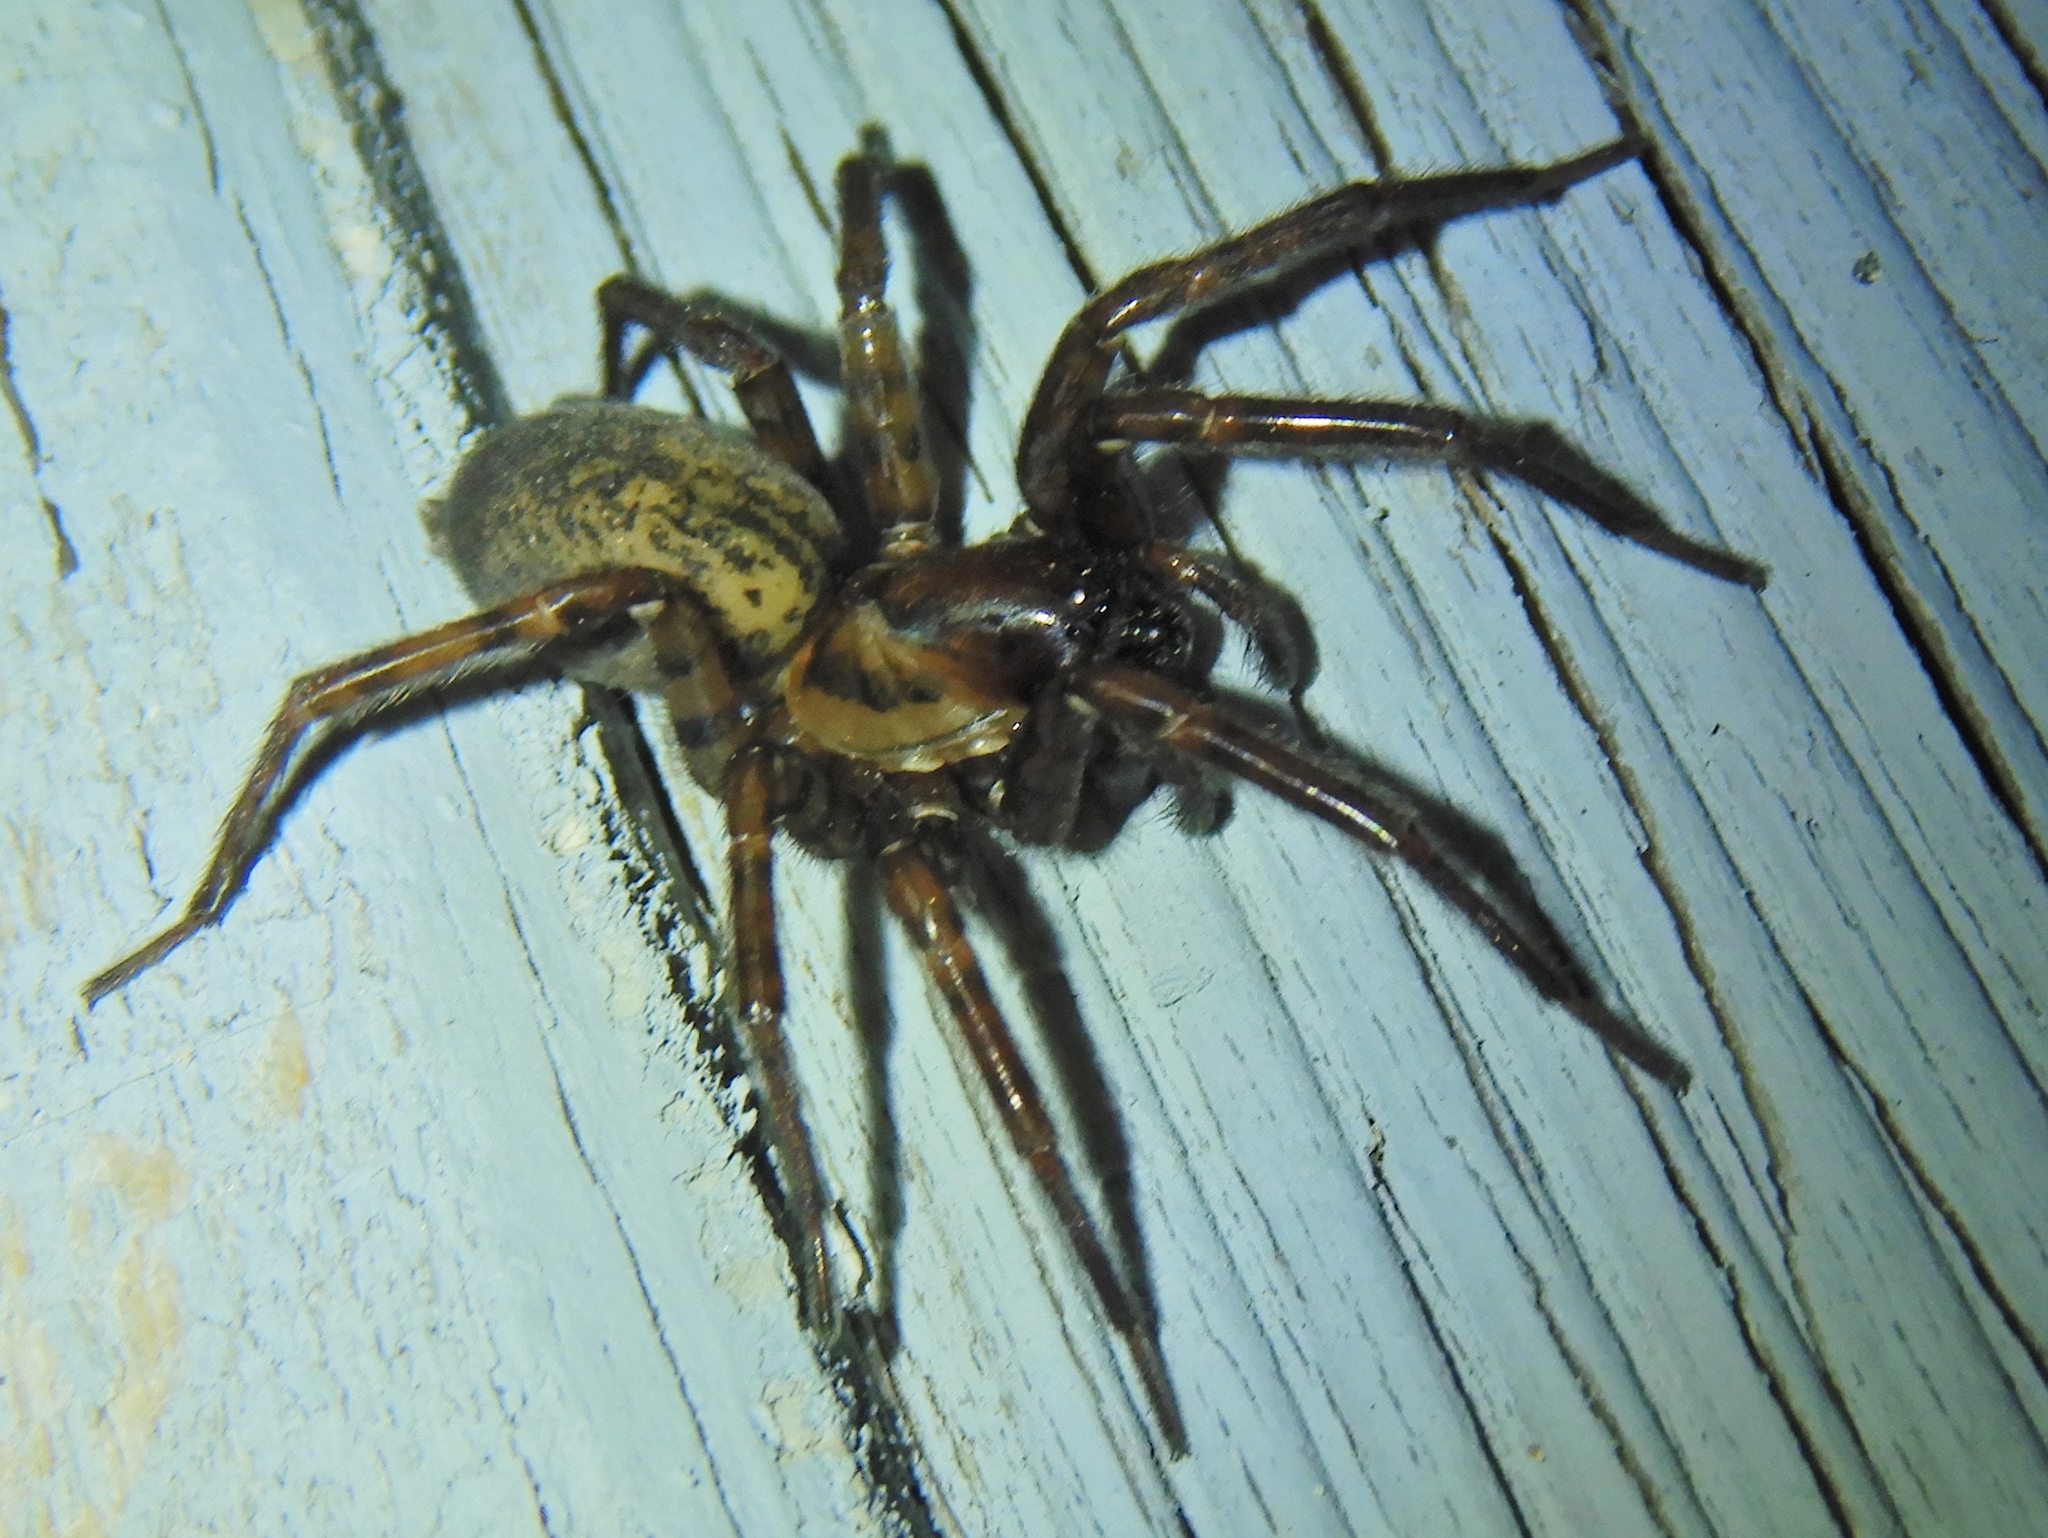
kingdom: Animalia
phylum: Arthropoda
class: Arachnida
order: Araneae
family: Agelenidae
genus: Coras
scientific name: Coras
